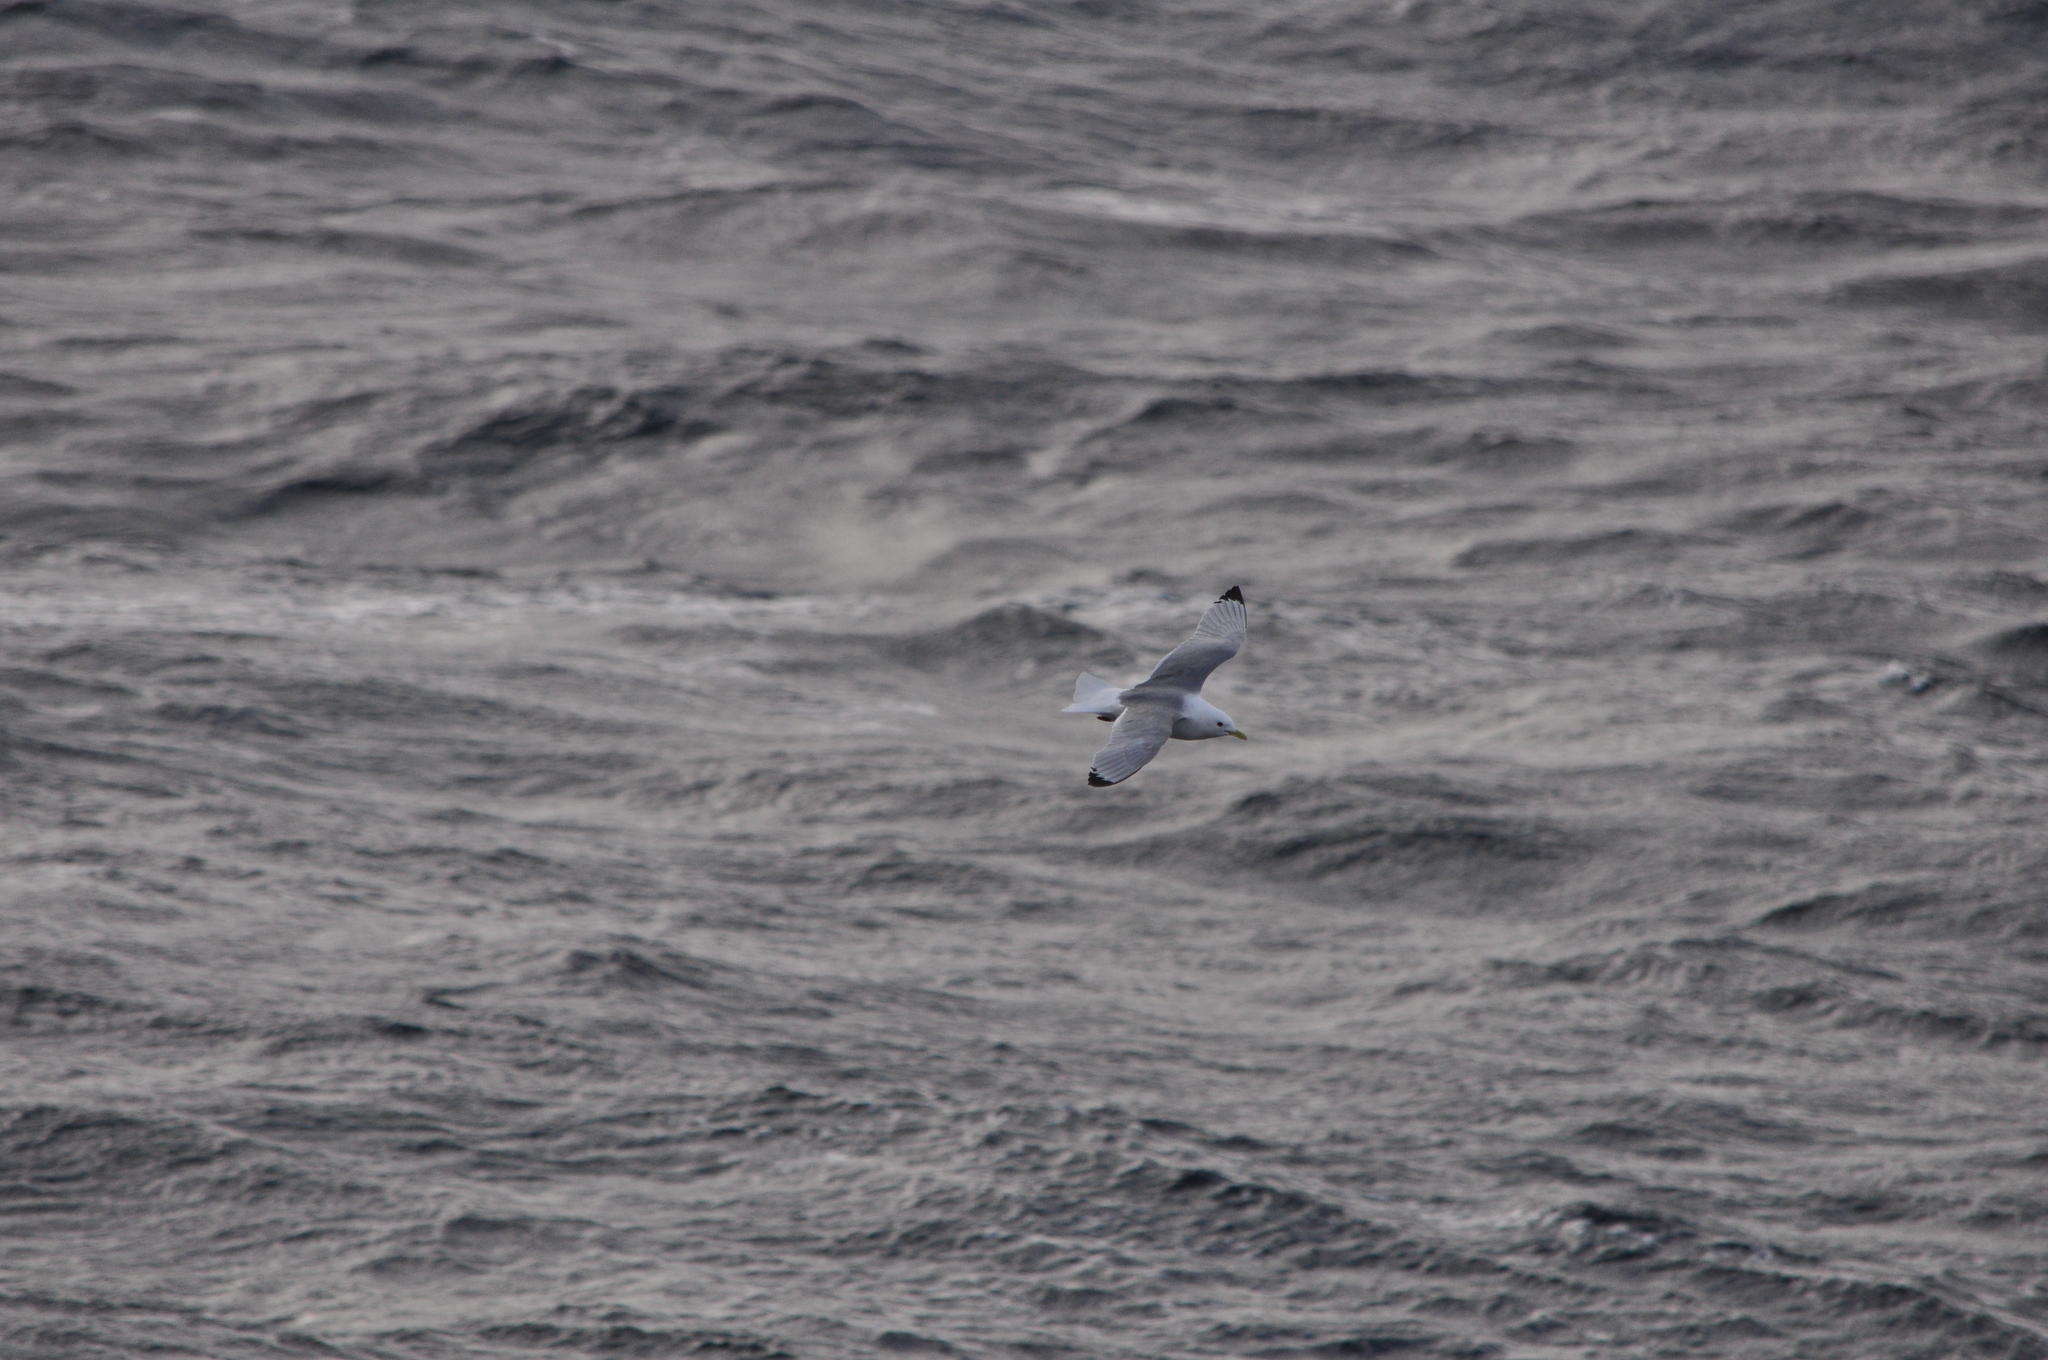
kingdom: Animalia
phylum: Chordata
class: Aves
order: Charadriiformes
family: Laridae
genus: Rissa
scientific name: Rissa tridactyla
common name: Black-legged kittiwake
